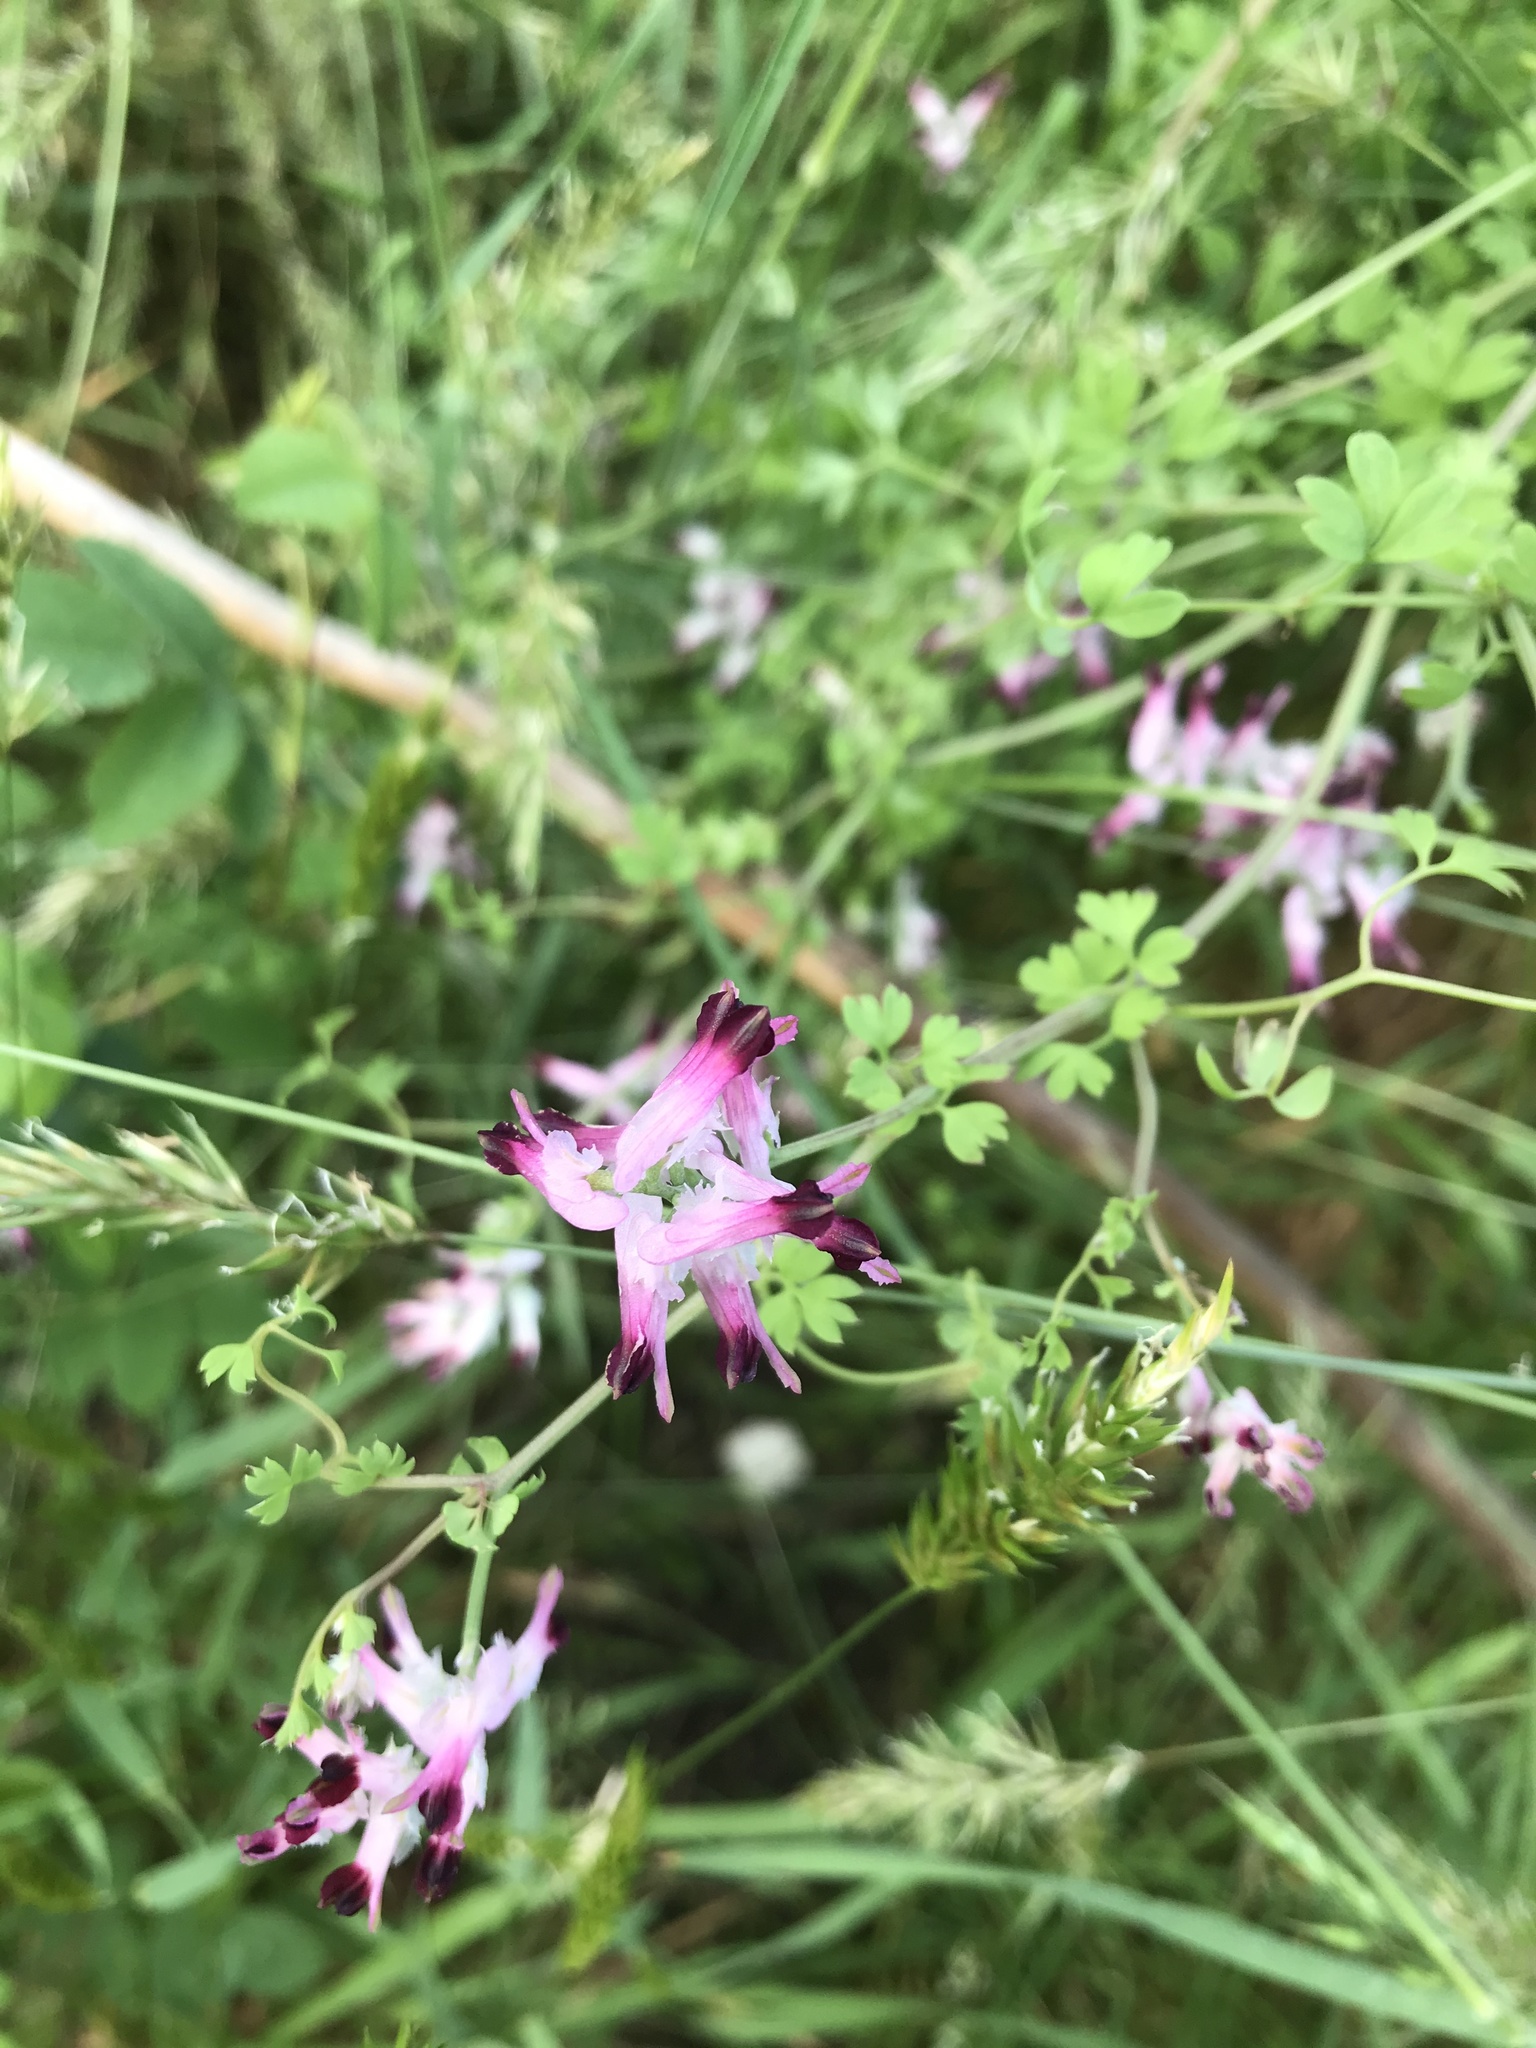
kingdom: Plantae
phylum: Tracheophyta
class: Magnoliopsida
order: Ranunculales
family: Papaveraceae
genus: Fumaria
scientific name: Fumaria muralis
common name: Common ramping-fumitory
